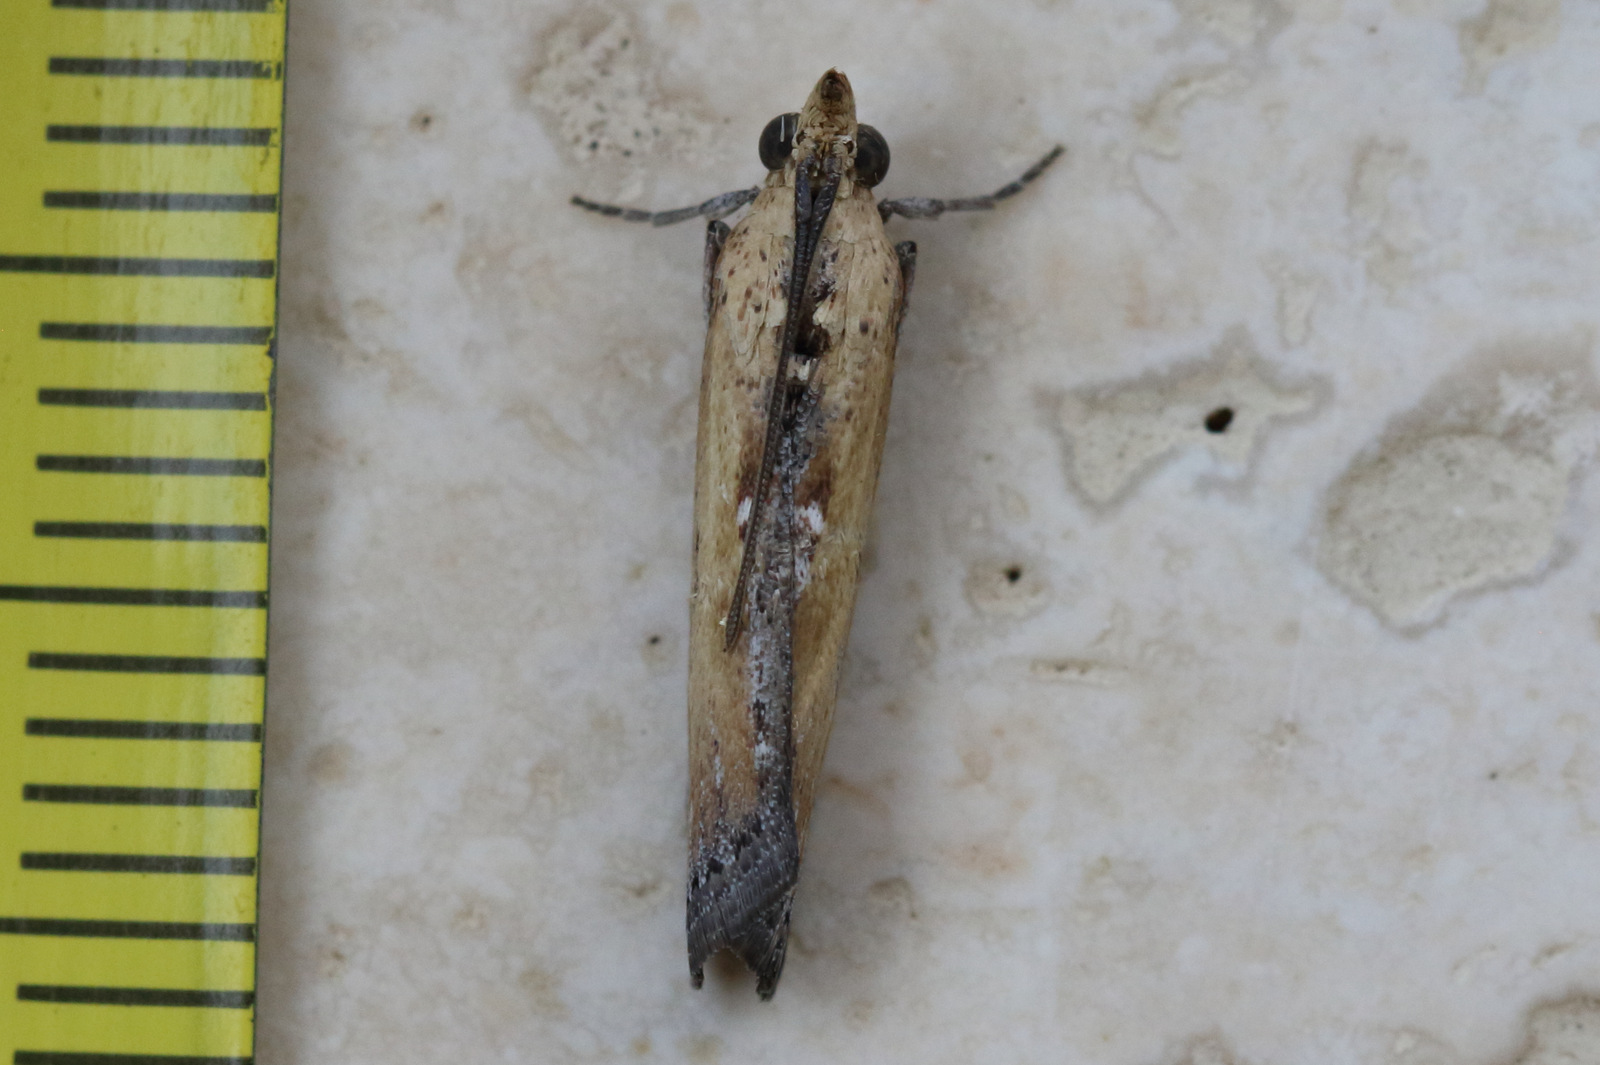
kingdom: Animalia
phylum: Arthropoda
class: Insecta
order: Lepidoptera
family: Pyralidae
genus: Morosaphycita
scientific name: Morosaphycita oculiferella
